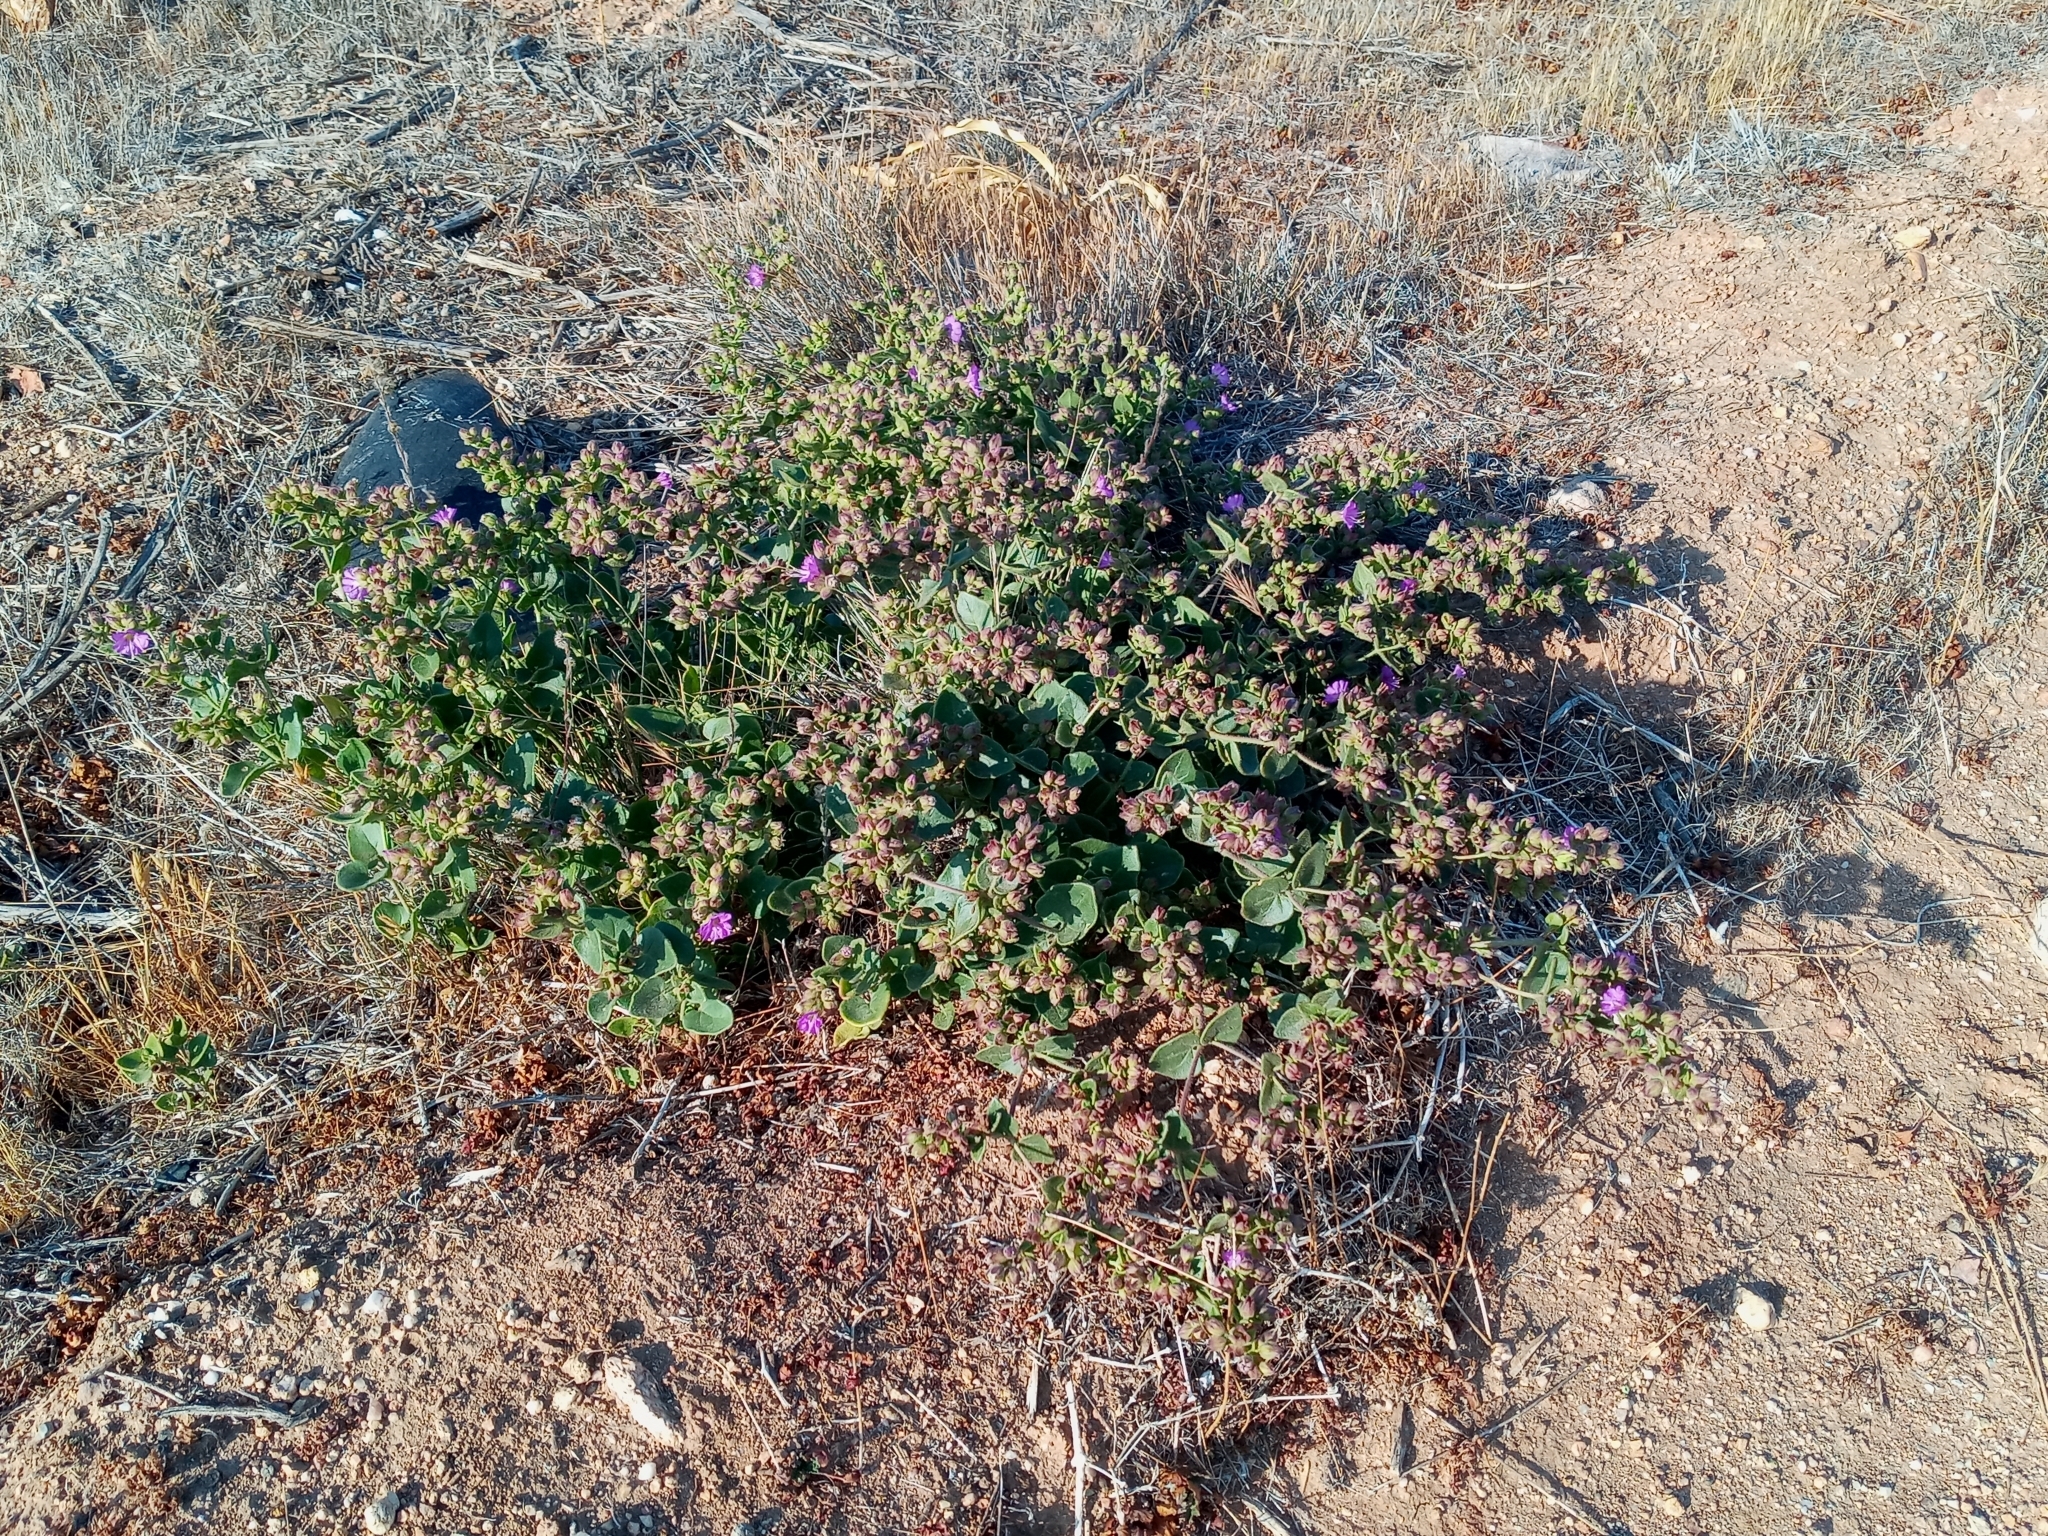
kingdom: Plantae
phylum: Tracheophyta
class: Magnoliopsida
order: Caryophyllales
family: Nyctaginaceae
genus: Mirabilis
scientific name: Mirabilis laevis
